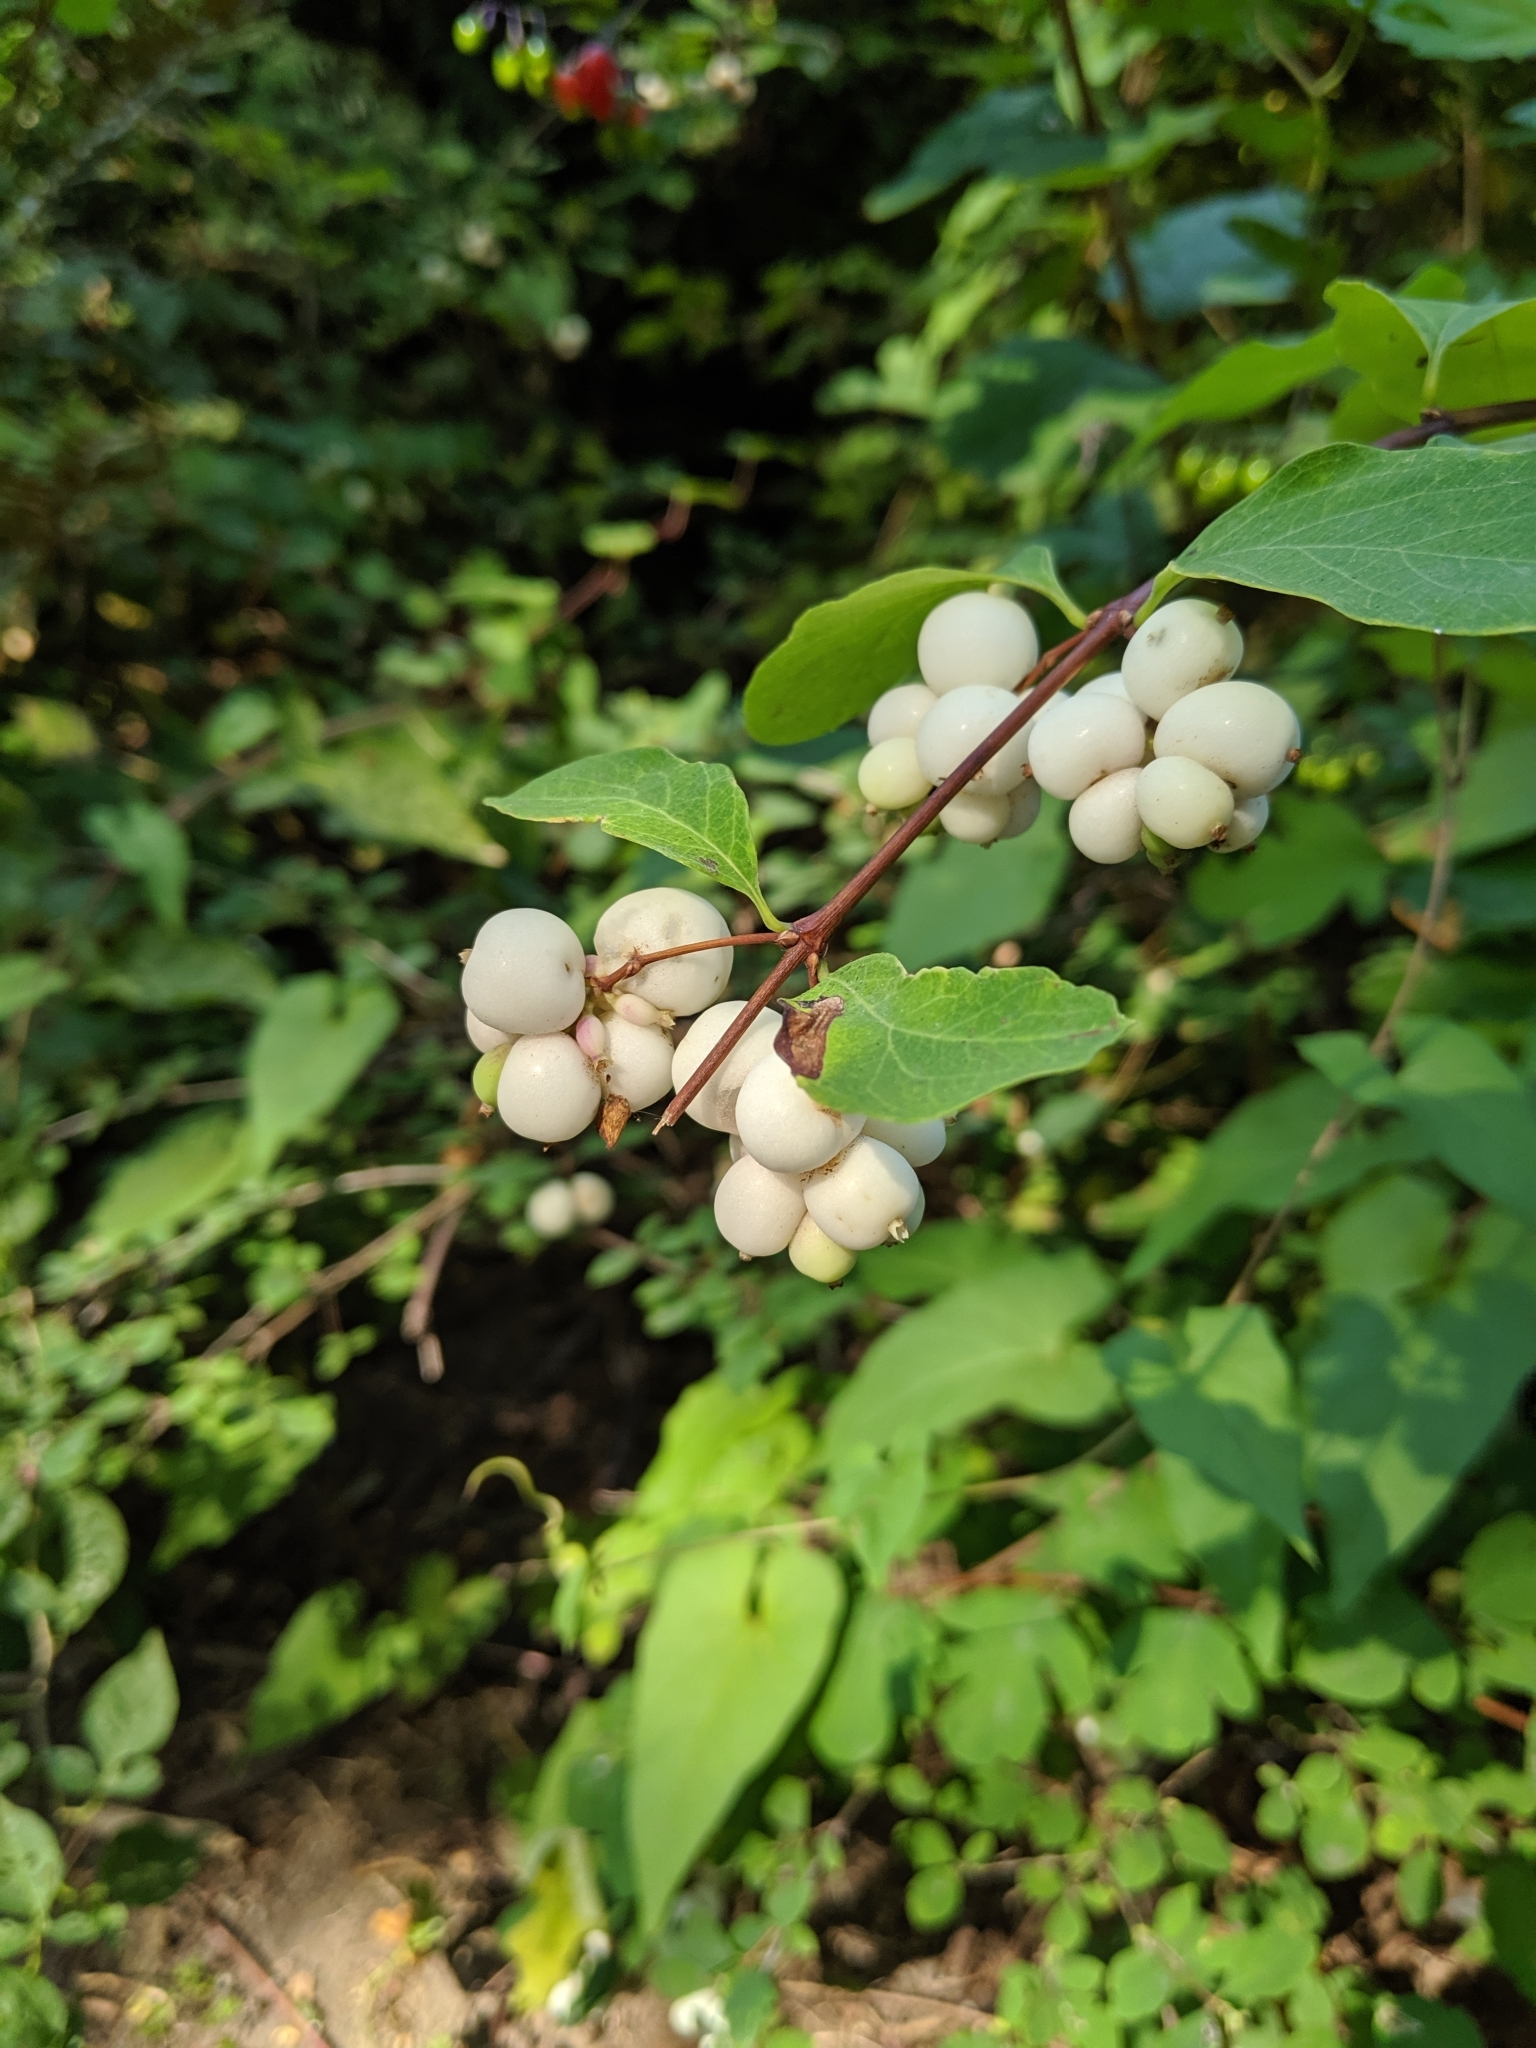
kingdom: Plantae
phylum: Tracheophyta
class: Magnoliopsida
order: Dipsacales
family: Caprifoliaceae
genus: Symphoricarpos
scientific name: Symphoricarpos albus
